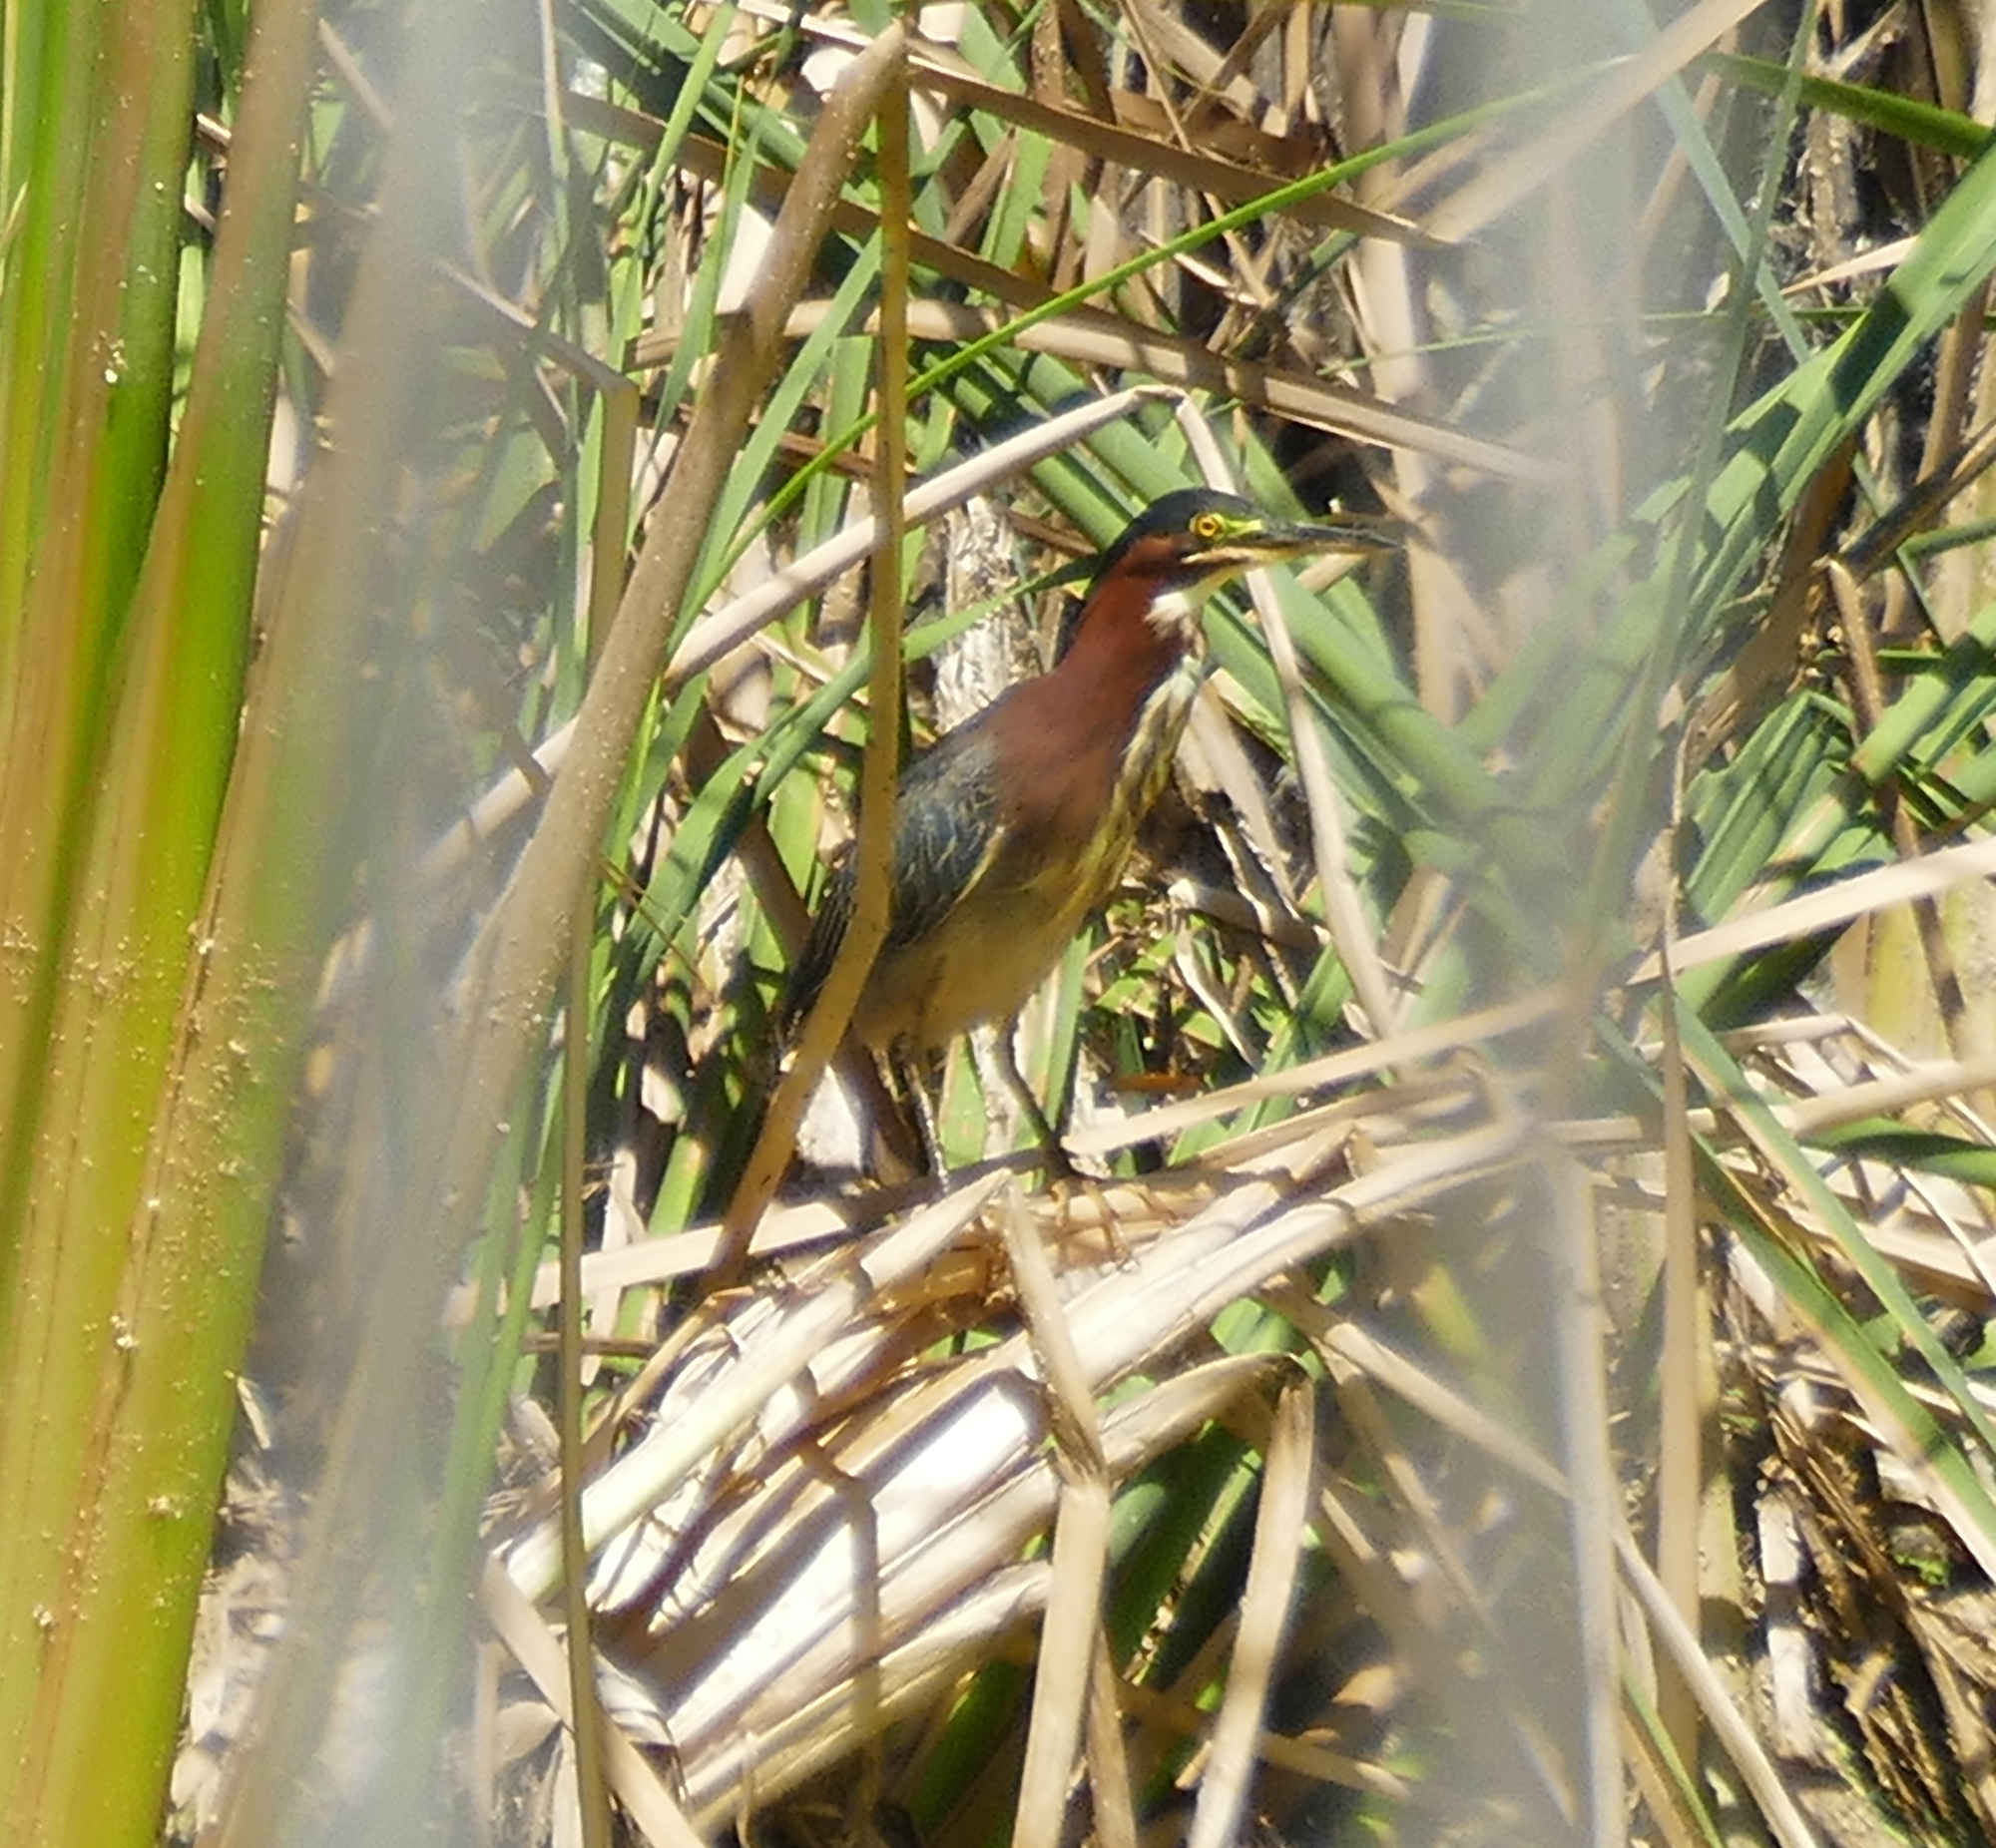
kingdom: Animalia
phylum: Chordata
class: Aves
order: Pelecaniformes
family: Ardeidae
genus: Butorides
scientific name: Butorides virescens
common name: Green heron
